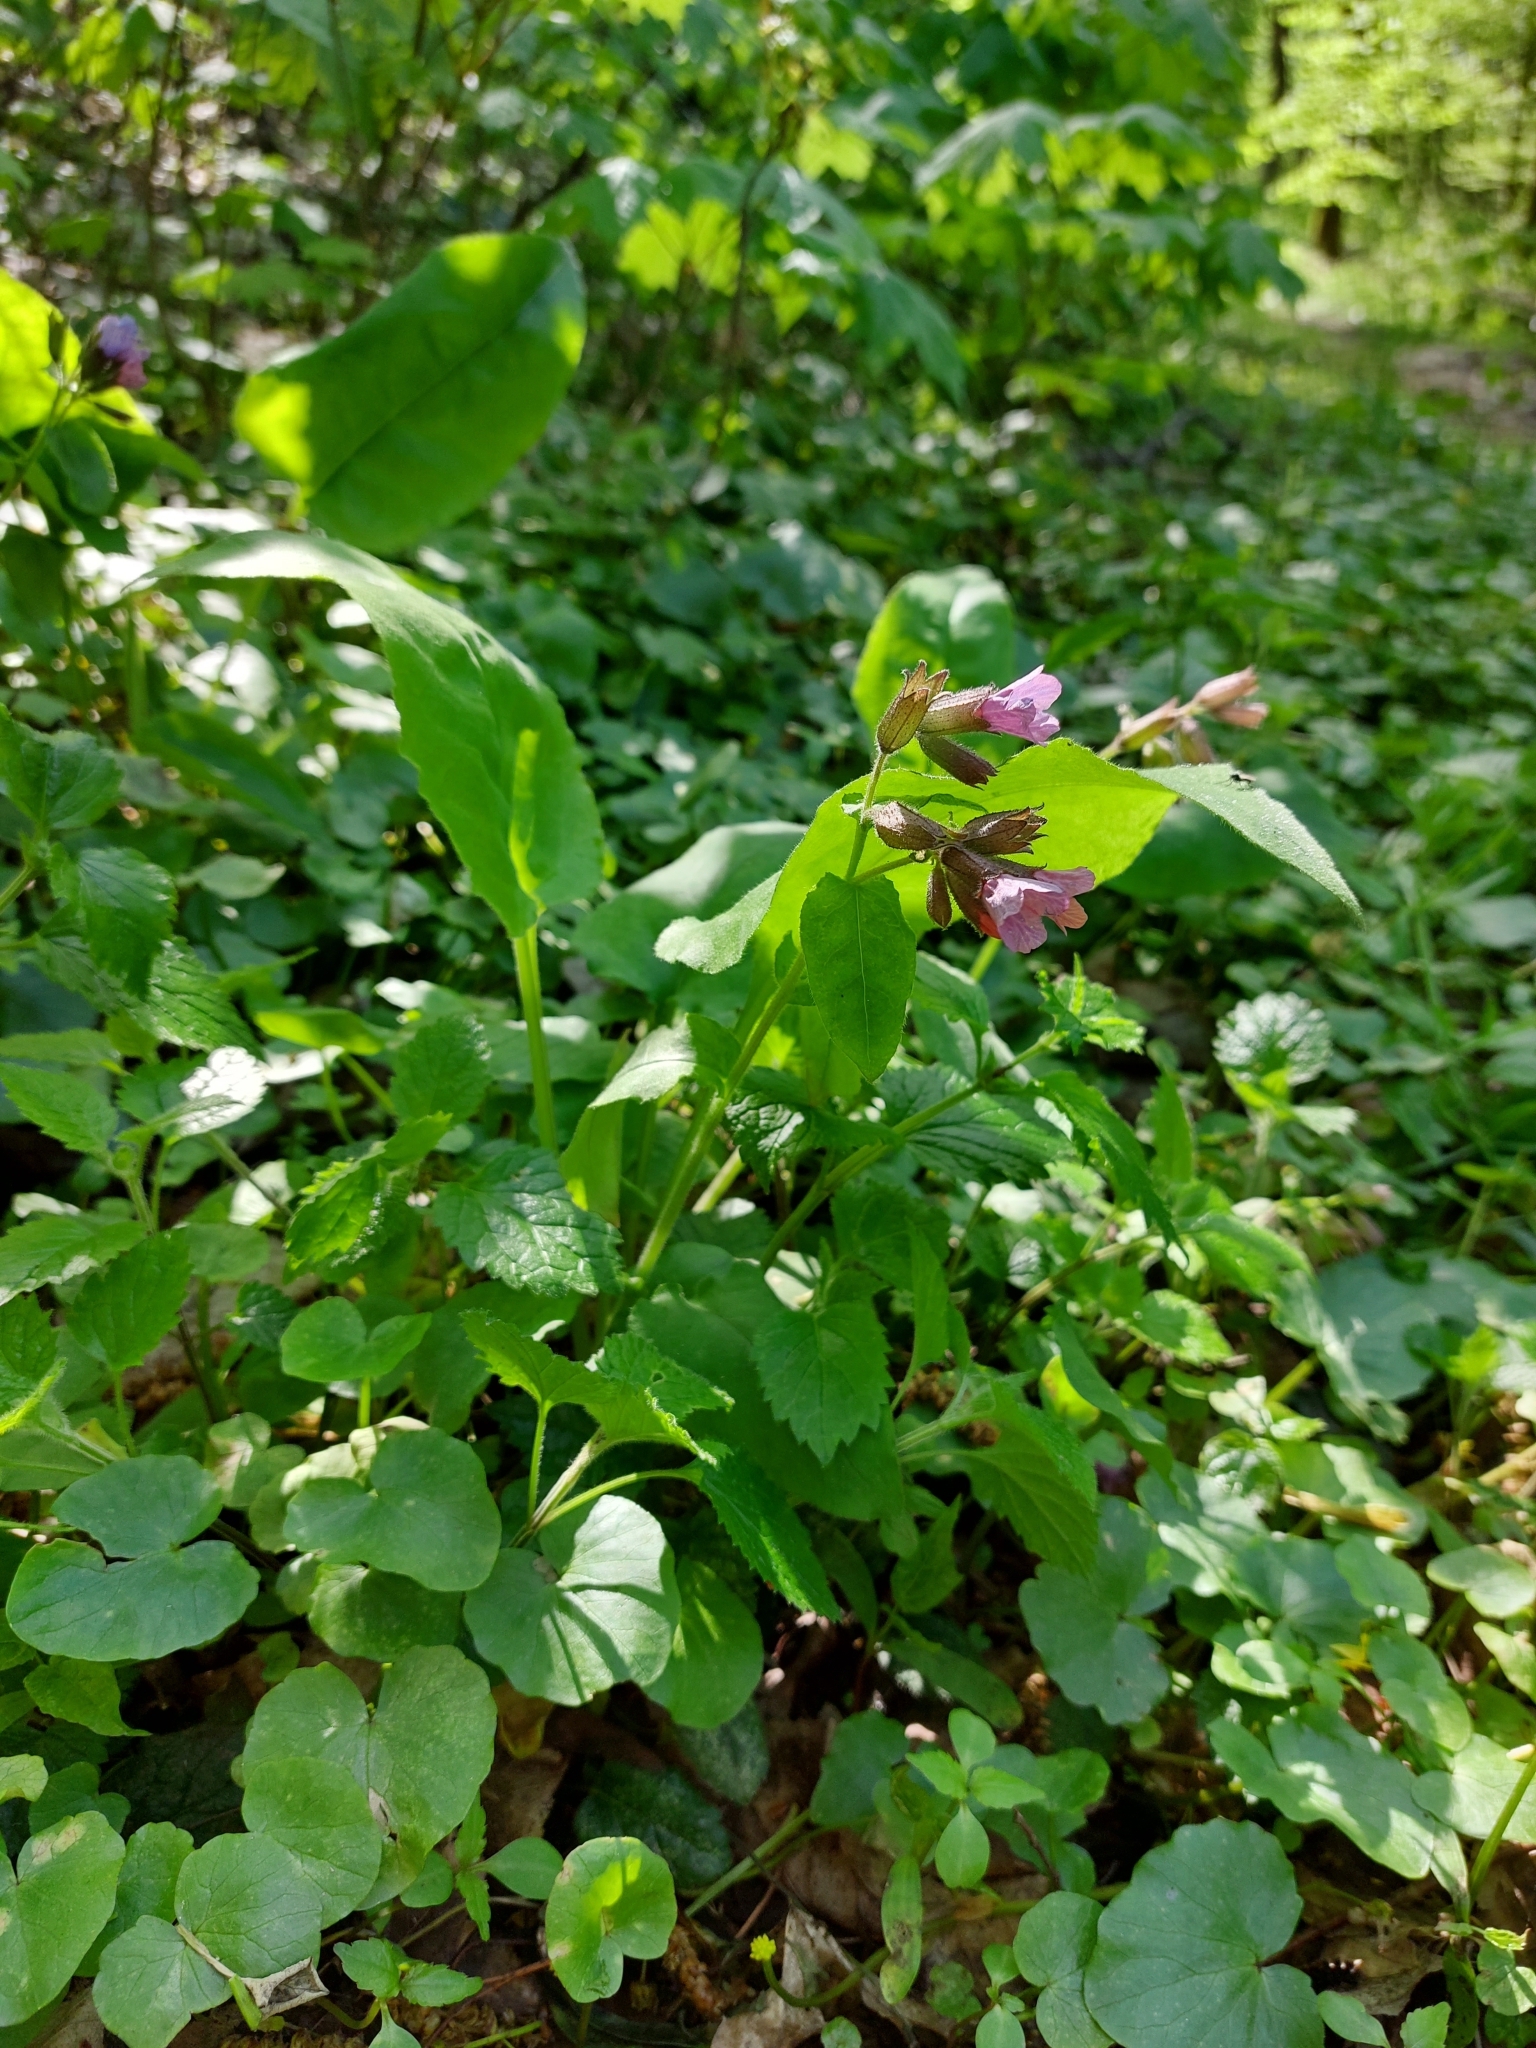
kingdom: Plantae
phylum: Tracheophyta
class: Magnoliopsida
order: Boraginales
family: Boraginaceae
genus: Pulmonaria
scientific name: Pulmonaria obscura
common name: Suffolk lungwort
